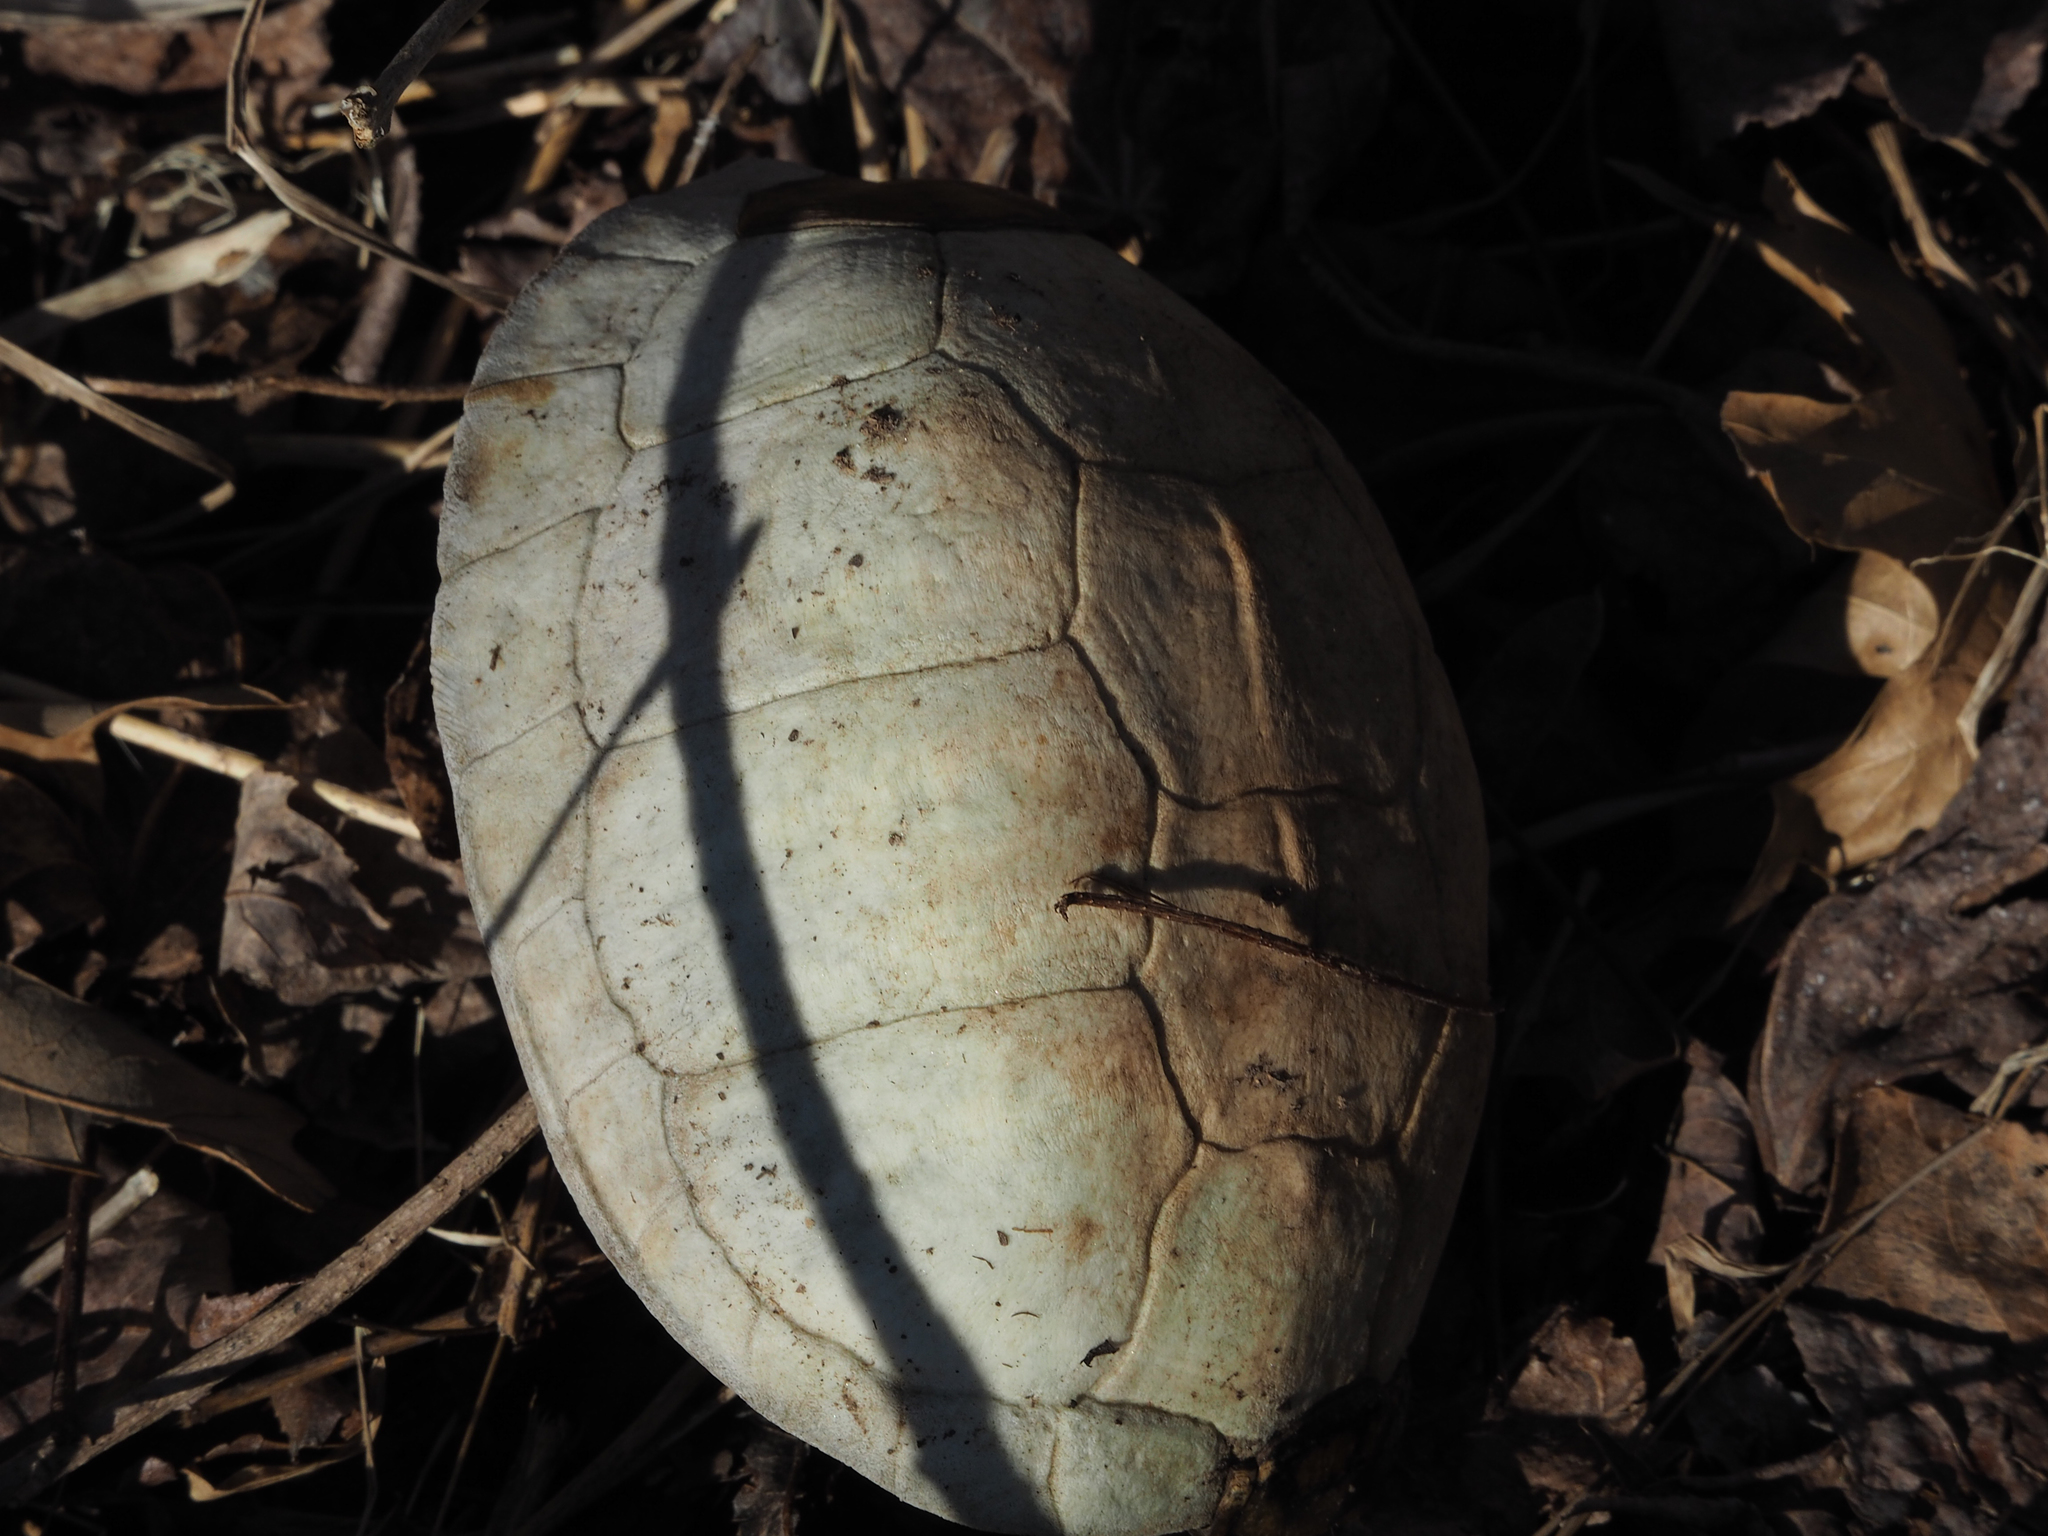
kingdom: Animalia
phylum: Chordata
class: Testudines
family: Emydidae
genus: Terrapene
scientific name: Terrapene carolina
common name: Common box turtle
